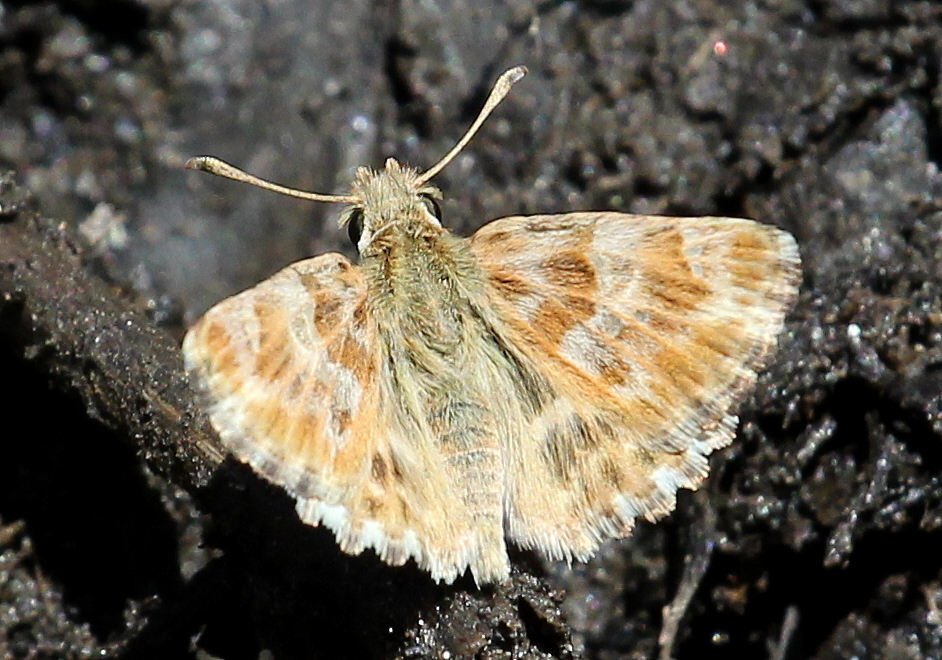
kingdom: Animalia
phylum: Arthropoda
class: Insecta
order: Lepidoptera
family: Hesperiidae
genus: Syrichtus
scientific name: Syrichtus Muschampia baeticus
